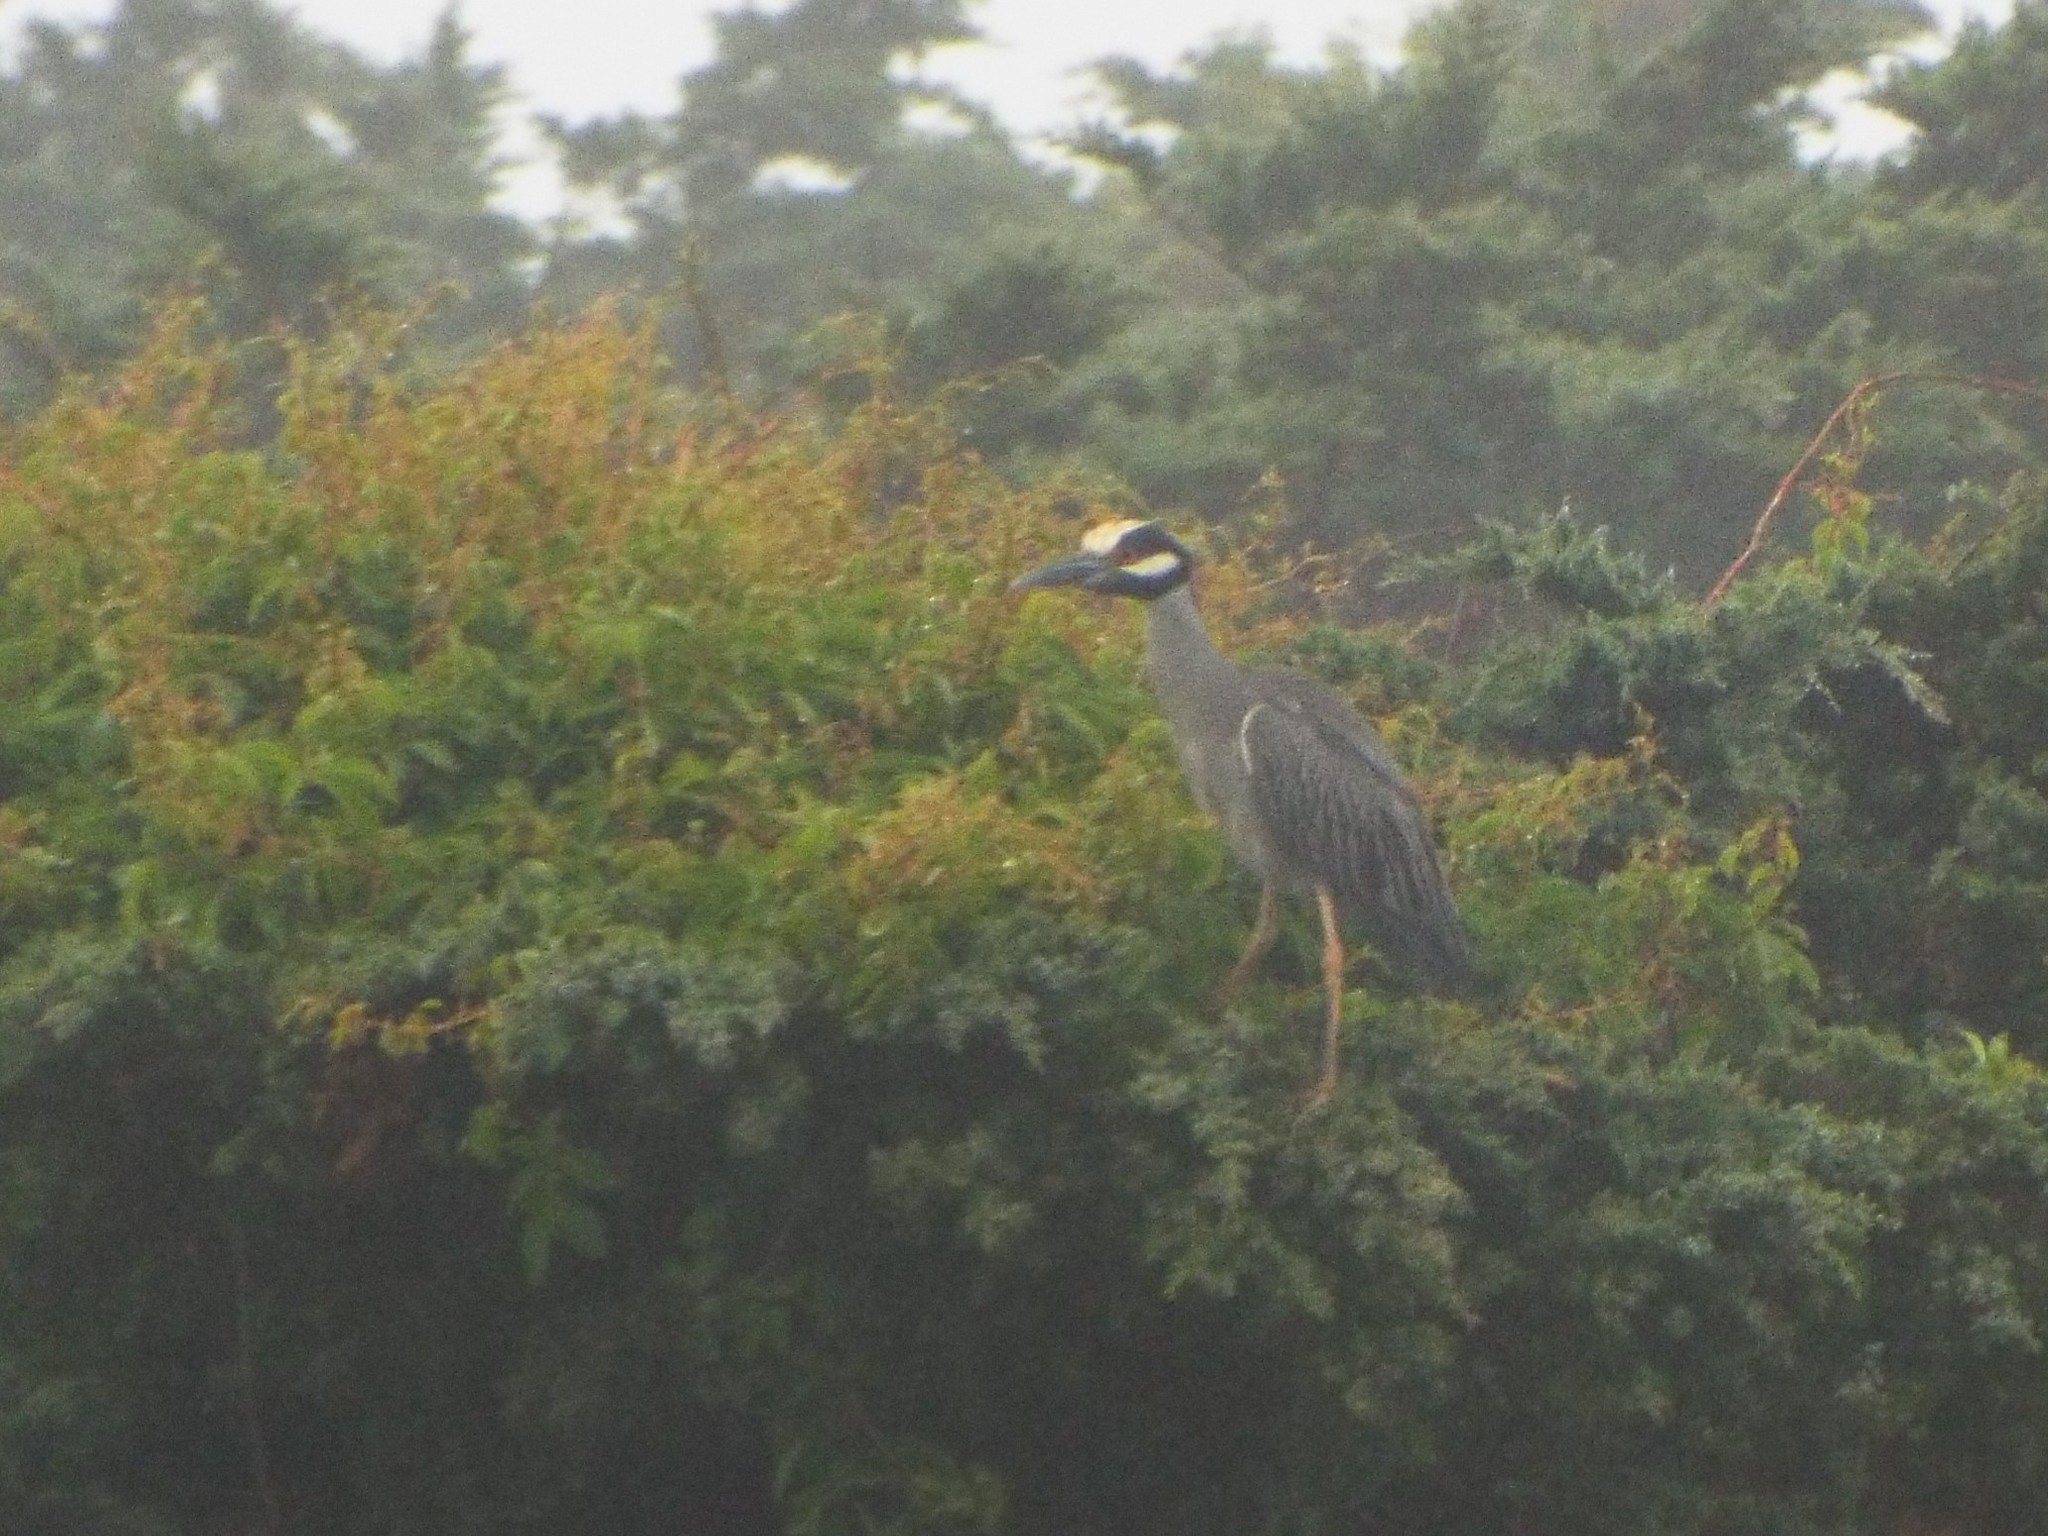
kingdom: Animalia
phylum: Chordata
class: Aves
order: Pelecaniformes
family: Ardeidae
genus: Nyctanassa
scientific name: Nyctanassa violacea
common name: Yellow-crowned night heron
